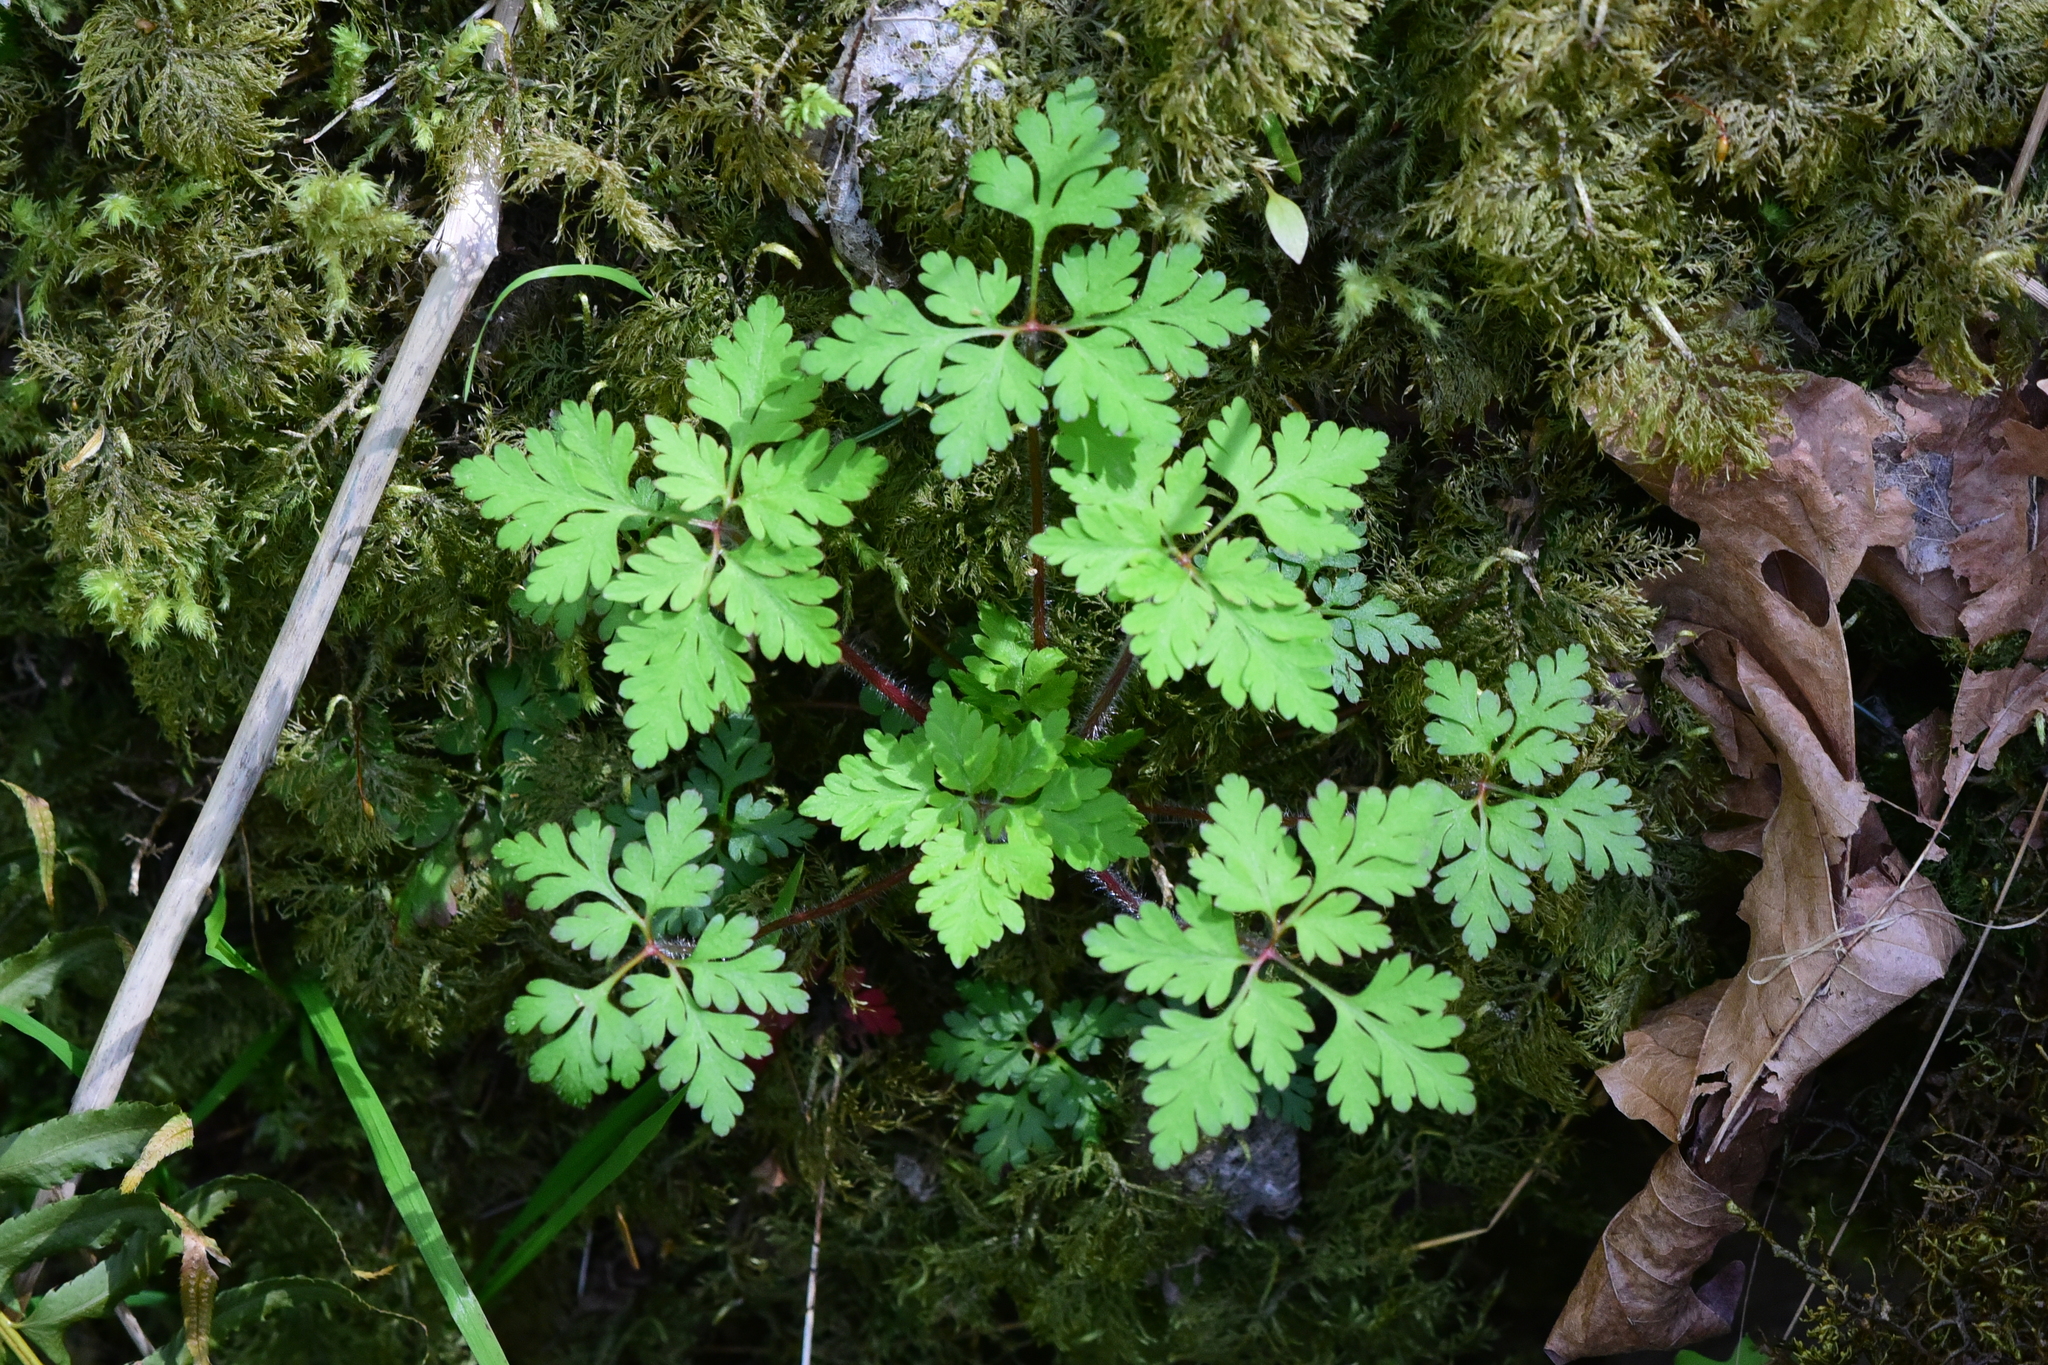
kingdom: Plantae
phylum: Tracheophyta
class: Magnoliopsida
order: Geraniales
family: Geraniaceae
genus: Geranium
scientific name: Geranium robertianum
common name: Herb-robert
